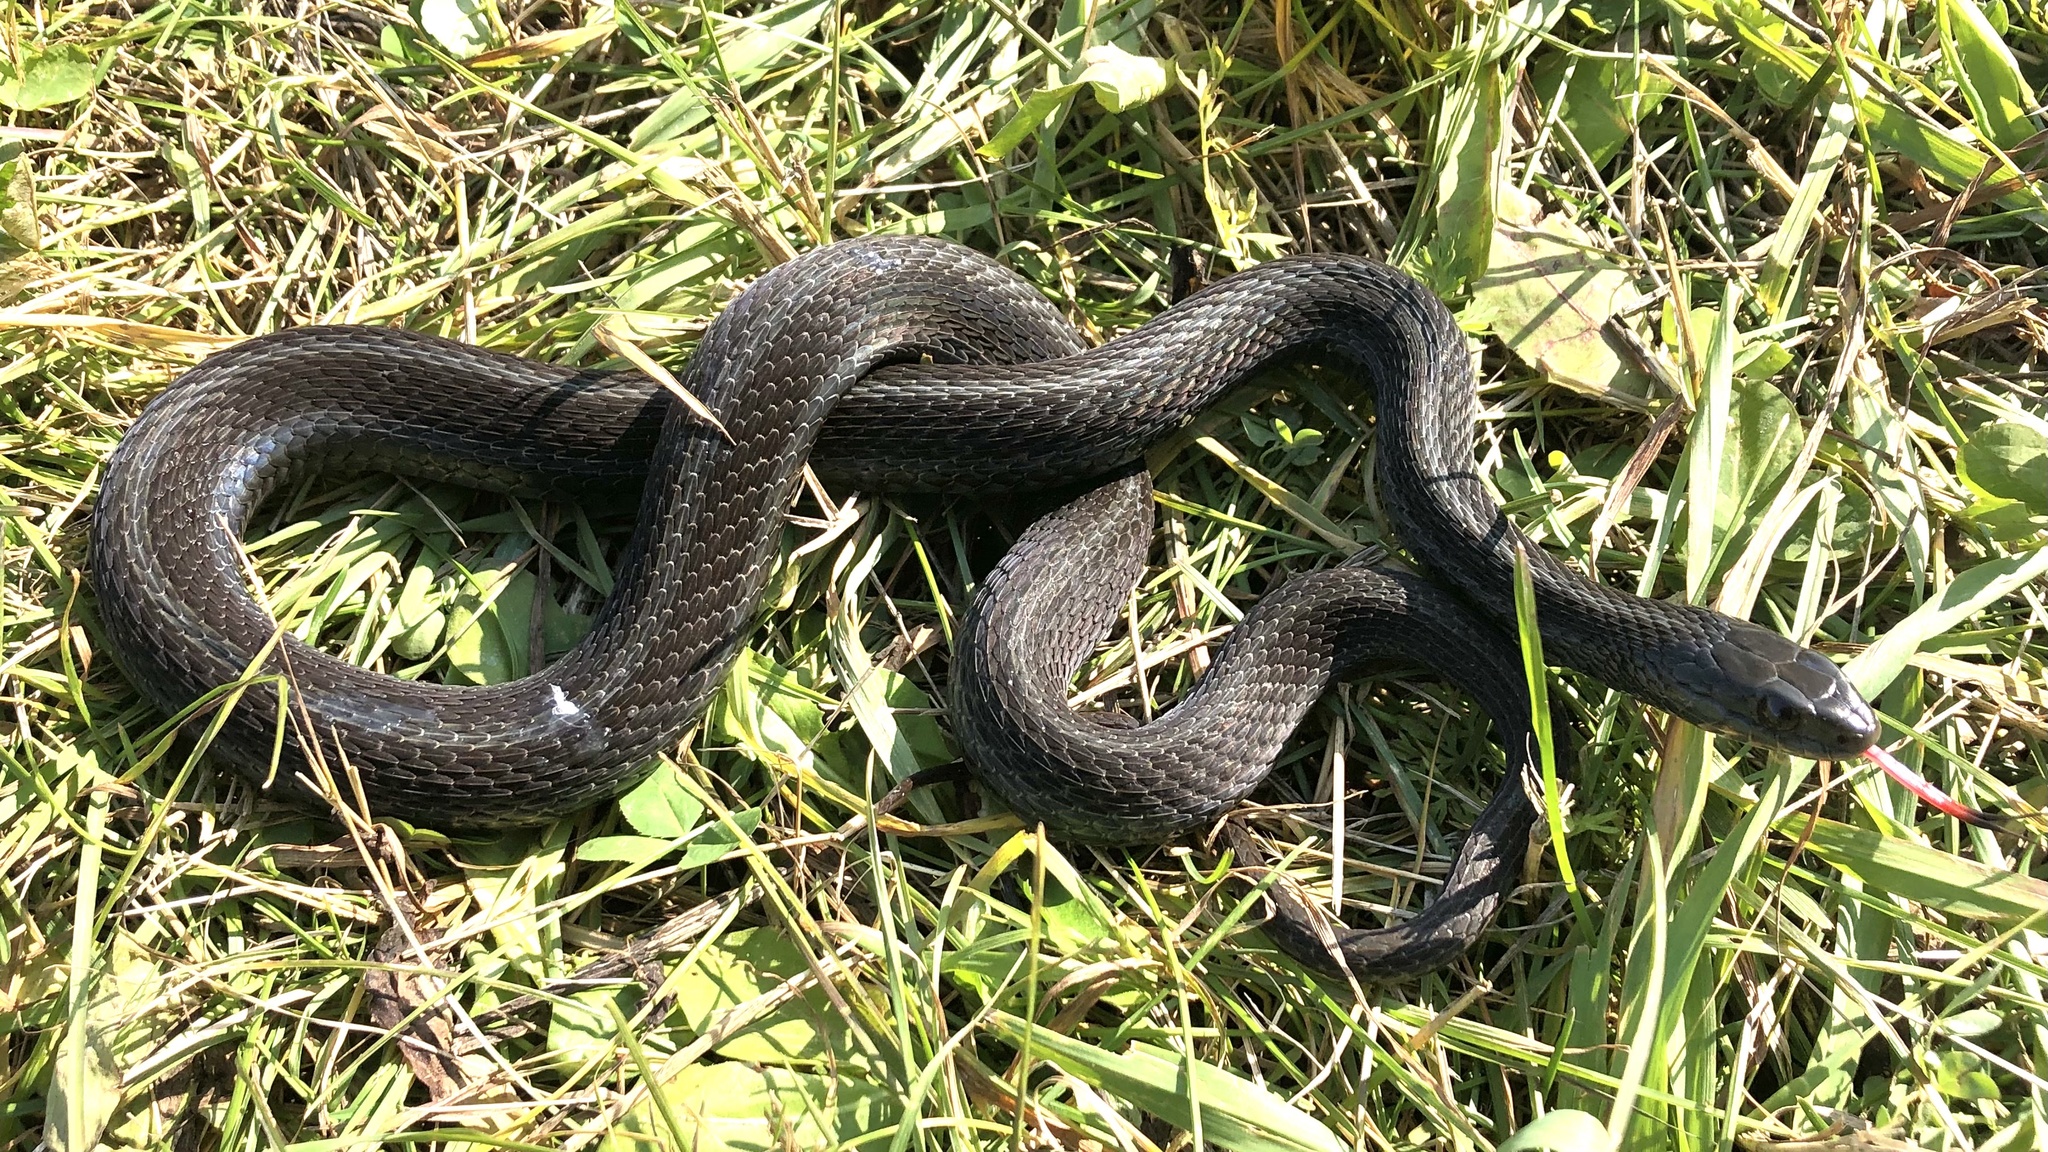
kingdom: Animalia
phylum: Chordata
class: Squamata
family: Colubridae
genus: Thamnophis
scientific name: Thamnophis sirtalis
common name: Common garter snake
